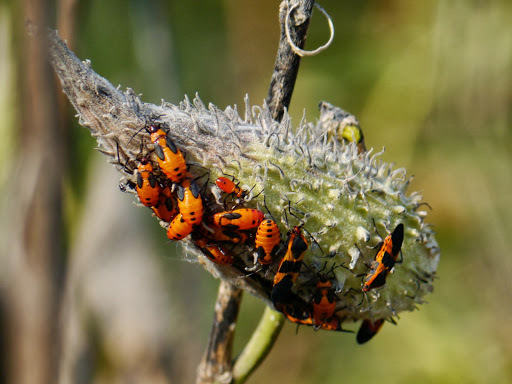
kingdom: Animalia
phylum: Arthropoda
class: Insecta
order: Hemiptera
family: Lygaeidae
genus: Oncopeltus
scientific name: Oncopeltus fasciatus
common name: Large milkweed bug
